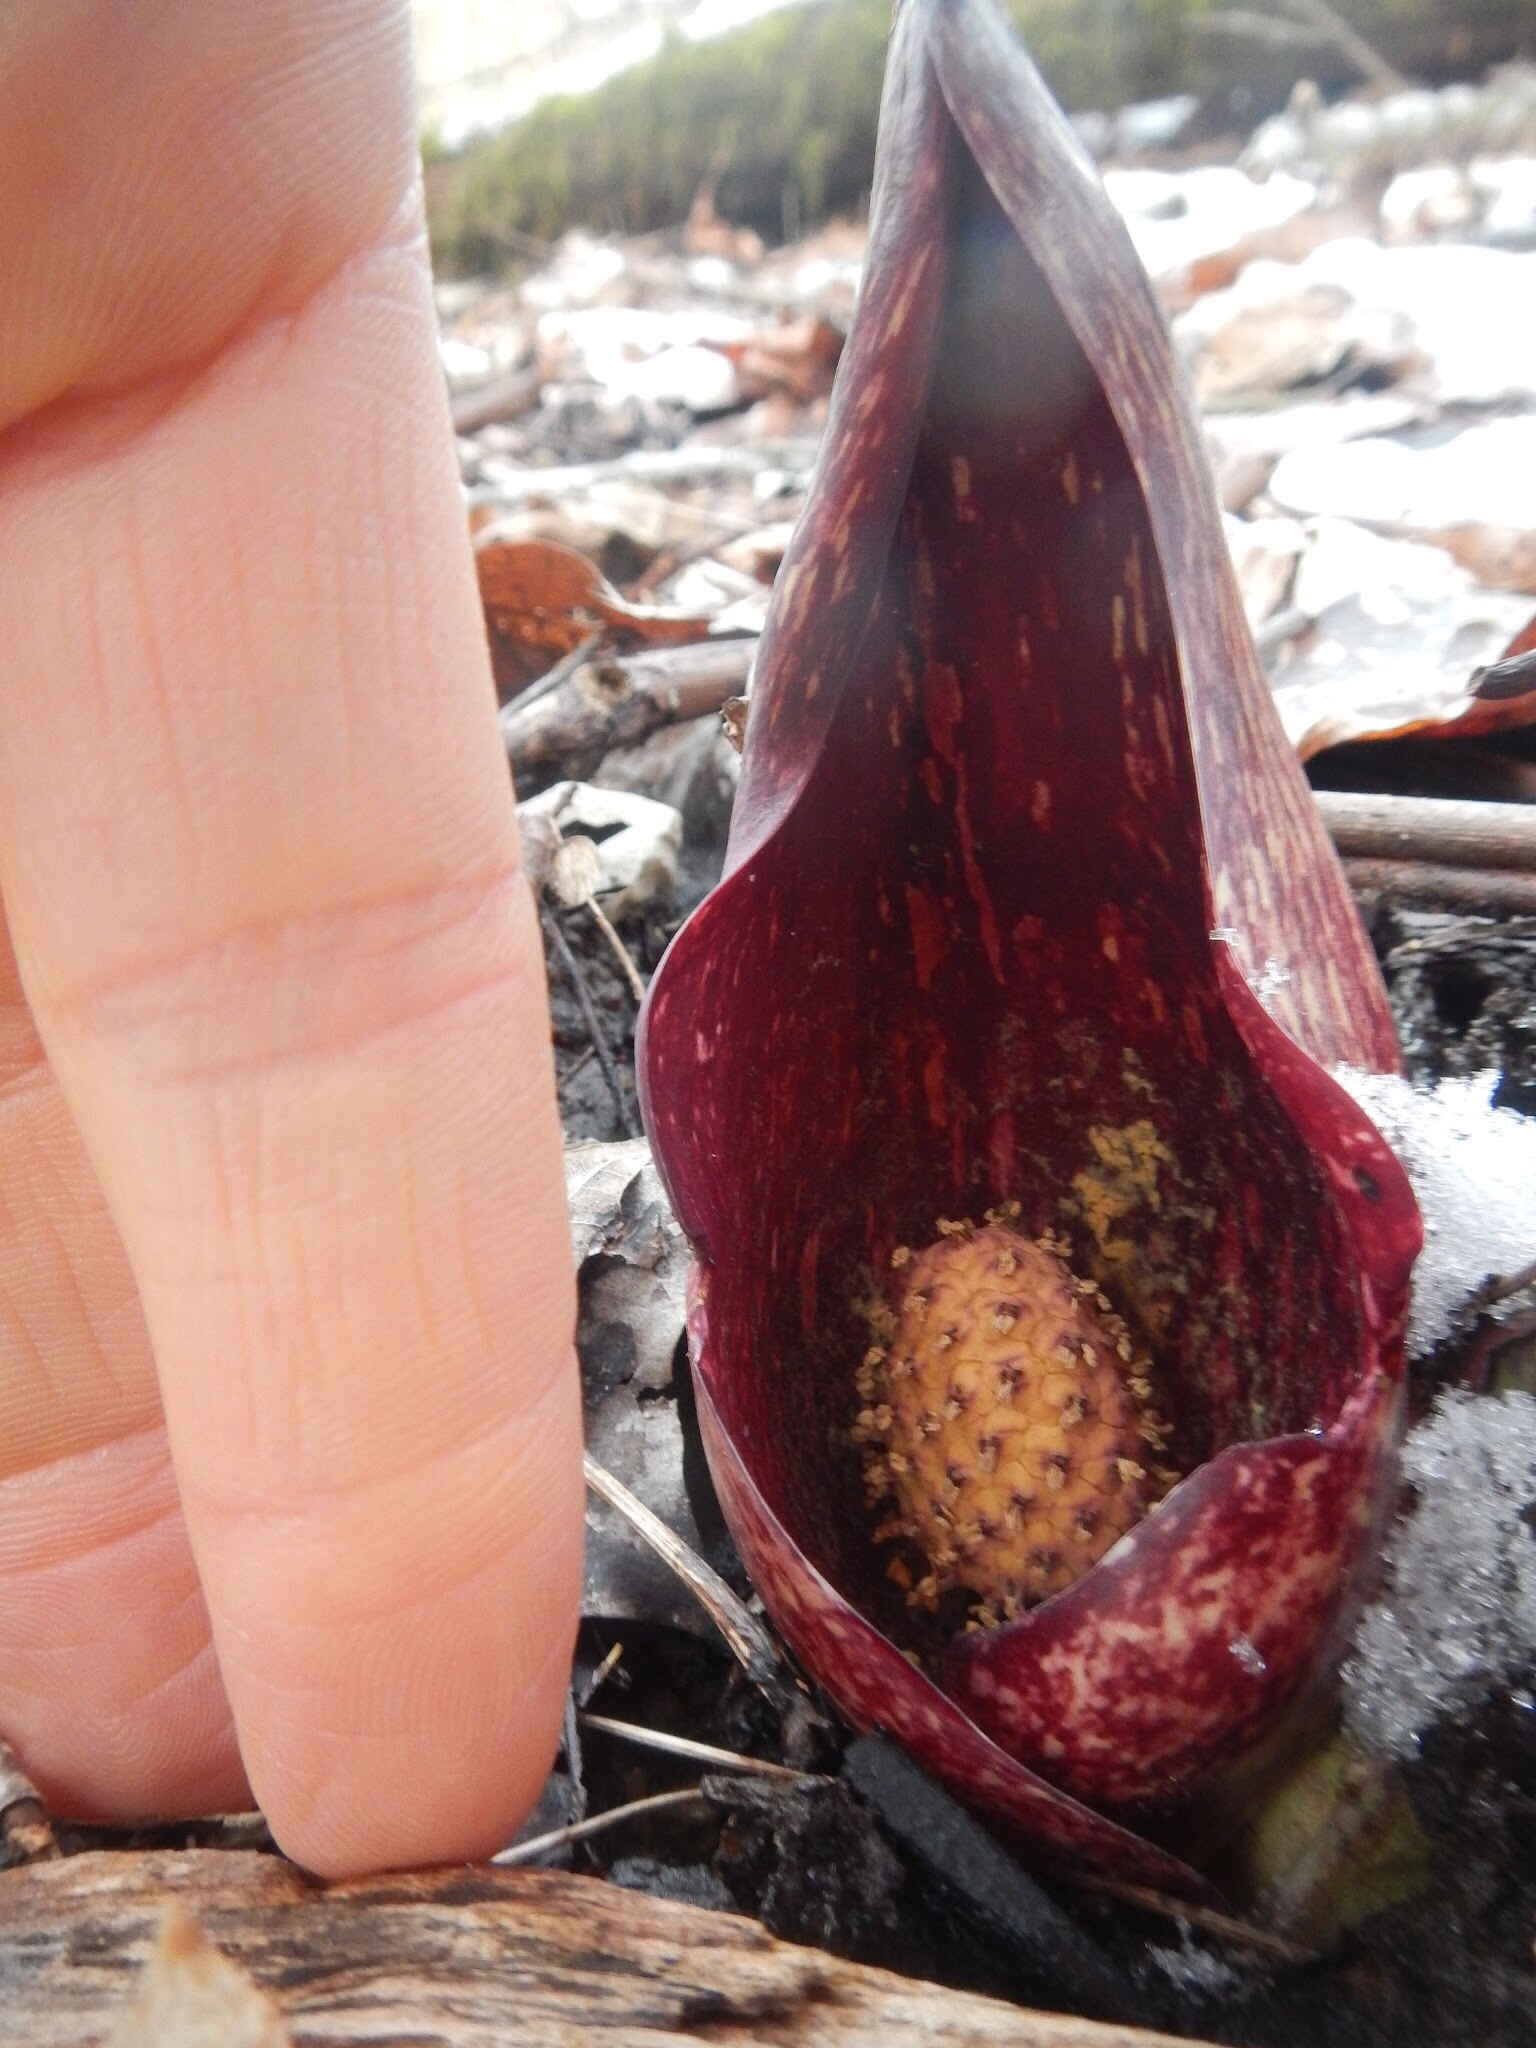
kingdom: Plantae
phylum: Tracheophyta
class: Liliopsida
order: Alismatales
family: Araceae
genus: Symplocarpus
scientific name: Symplocarpus foetidus
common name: Eastern skunk cabbage
